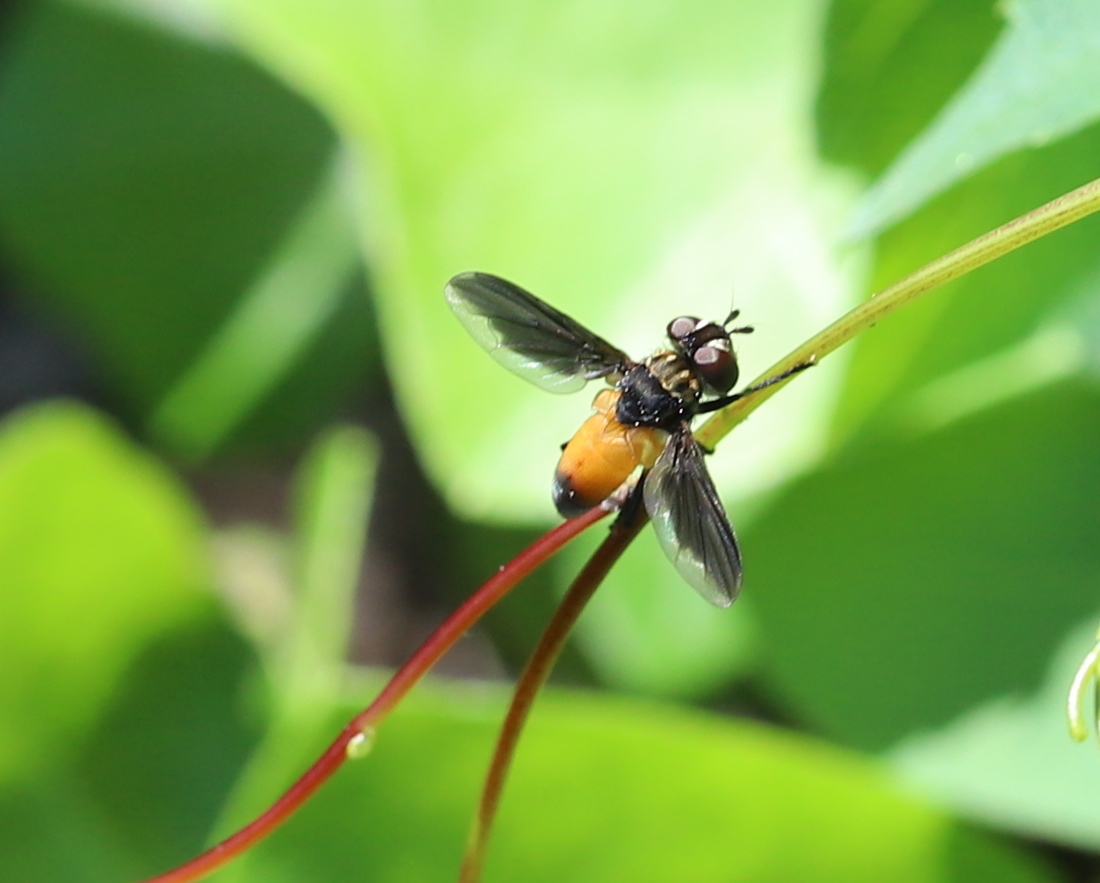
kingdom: Animalia
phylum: Arthropoda
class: Insecta
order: Diptera
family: Tachinidae
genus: Trichopoda
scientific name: Trichopoda pennipes
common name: Tachinid fly
